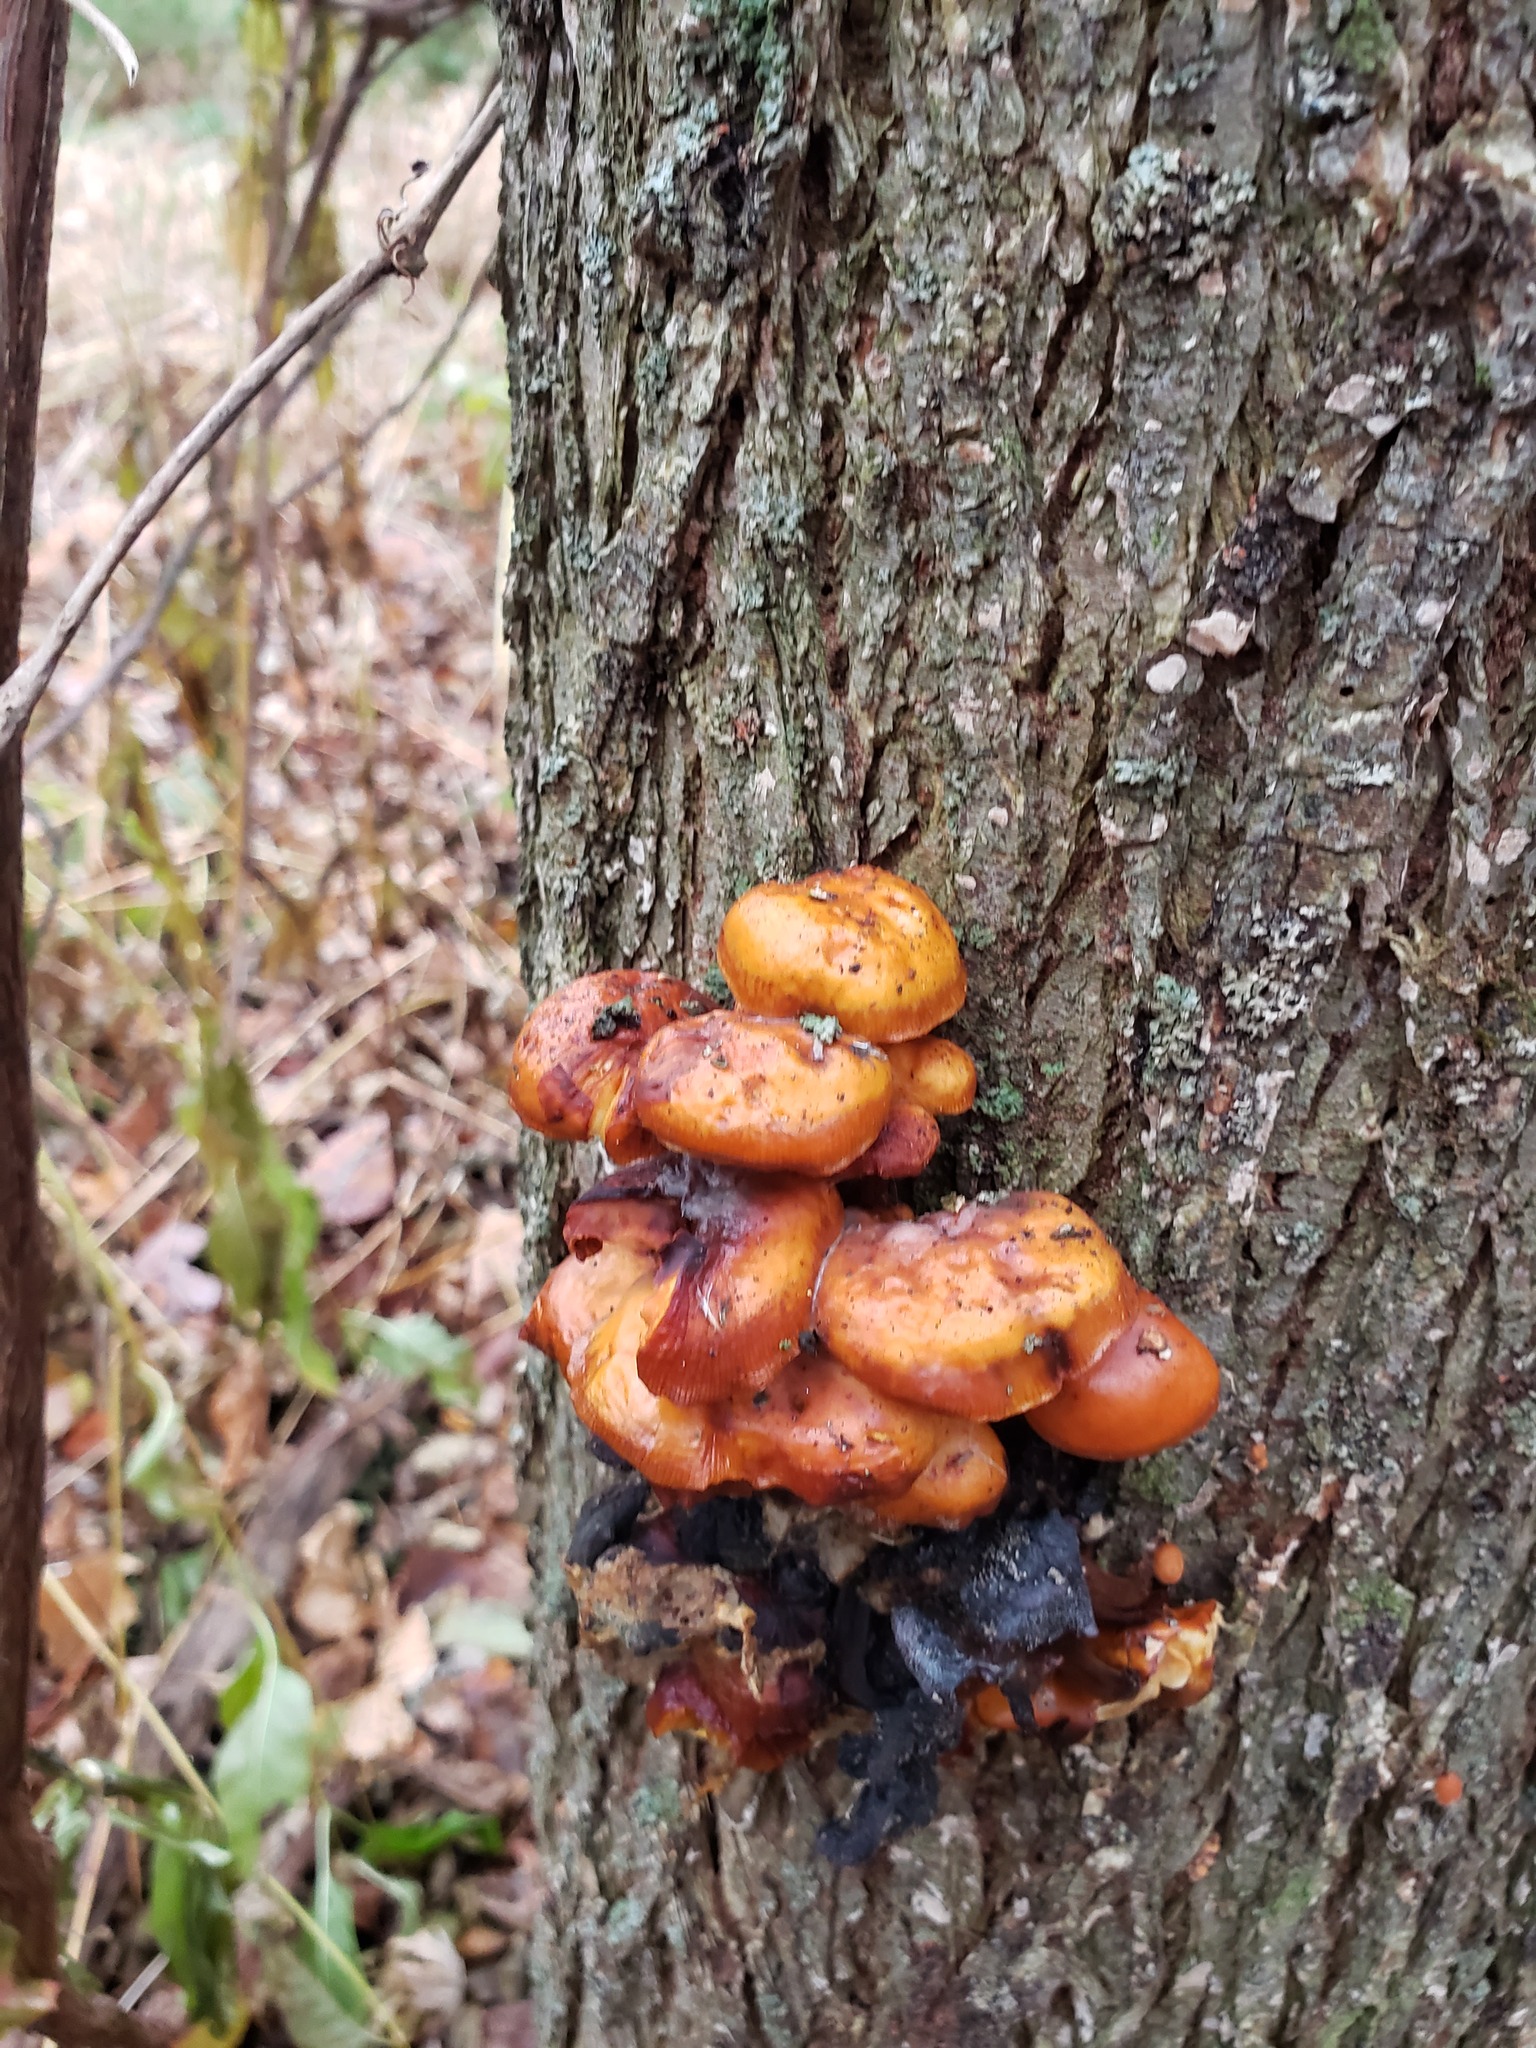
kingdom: Fungi
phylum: Basidiomycota
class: Agaricomycetes
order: Agaricales
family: Physalacriaceae
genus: Flammulina
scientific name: Flammulina velutipes
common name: Velvet shank
